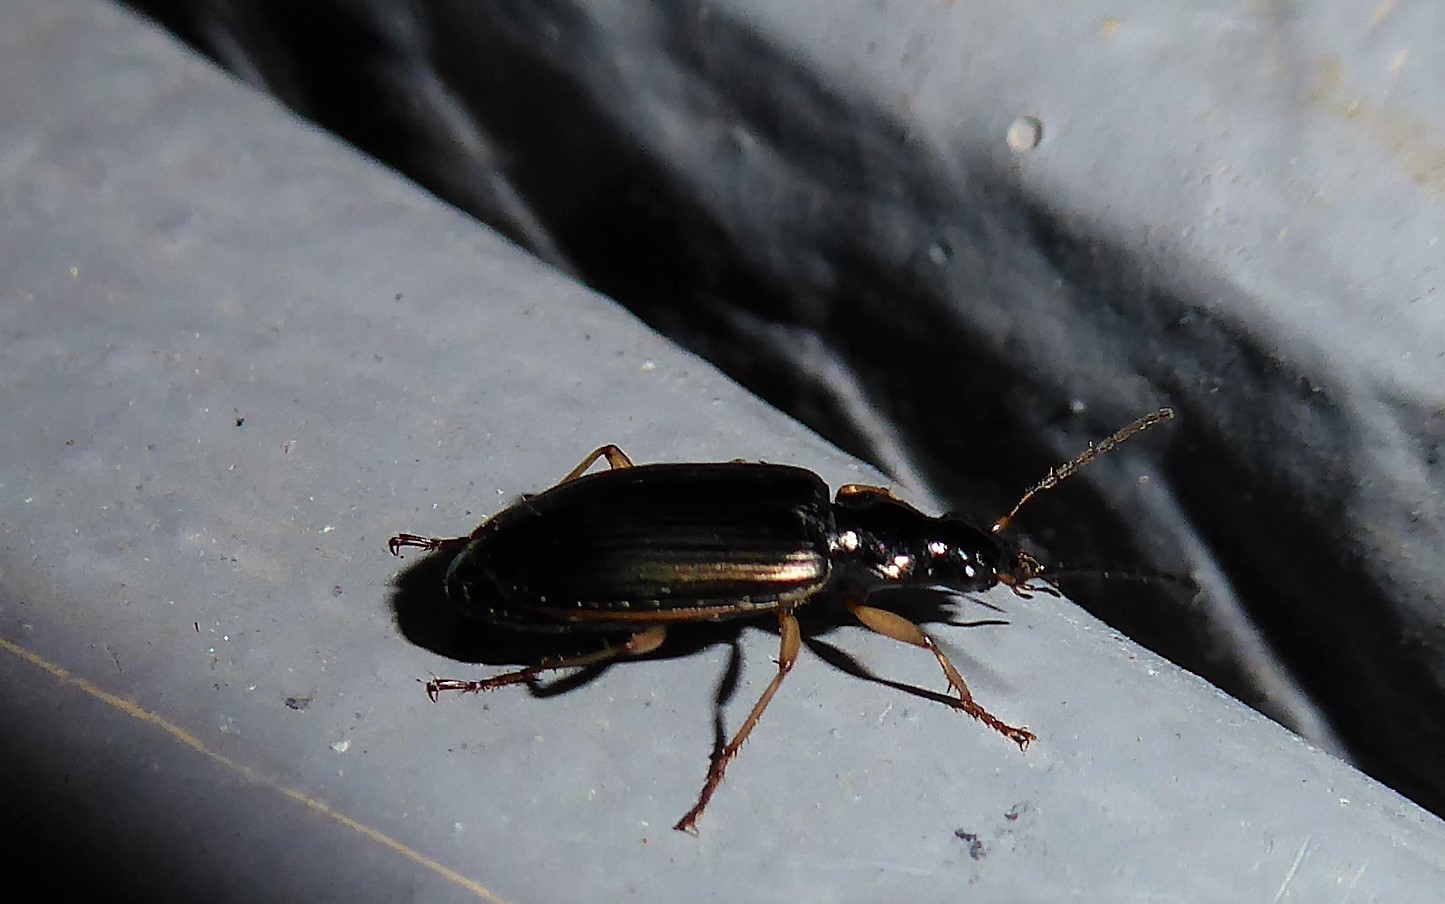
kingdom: Animalia
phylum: Arthropoda
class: Insecta
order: Coleoptera
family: Carabidae
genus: Notagonum
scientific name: Notagonum submetallicum
